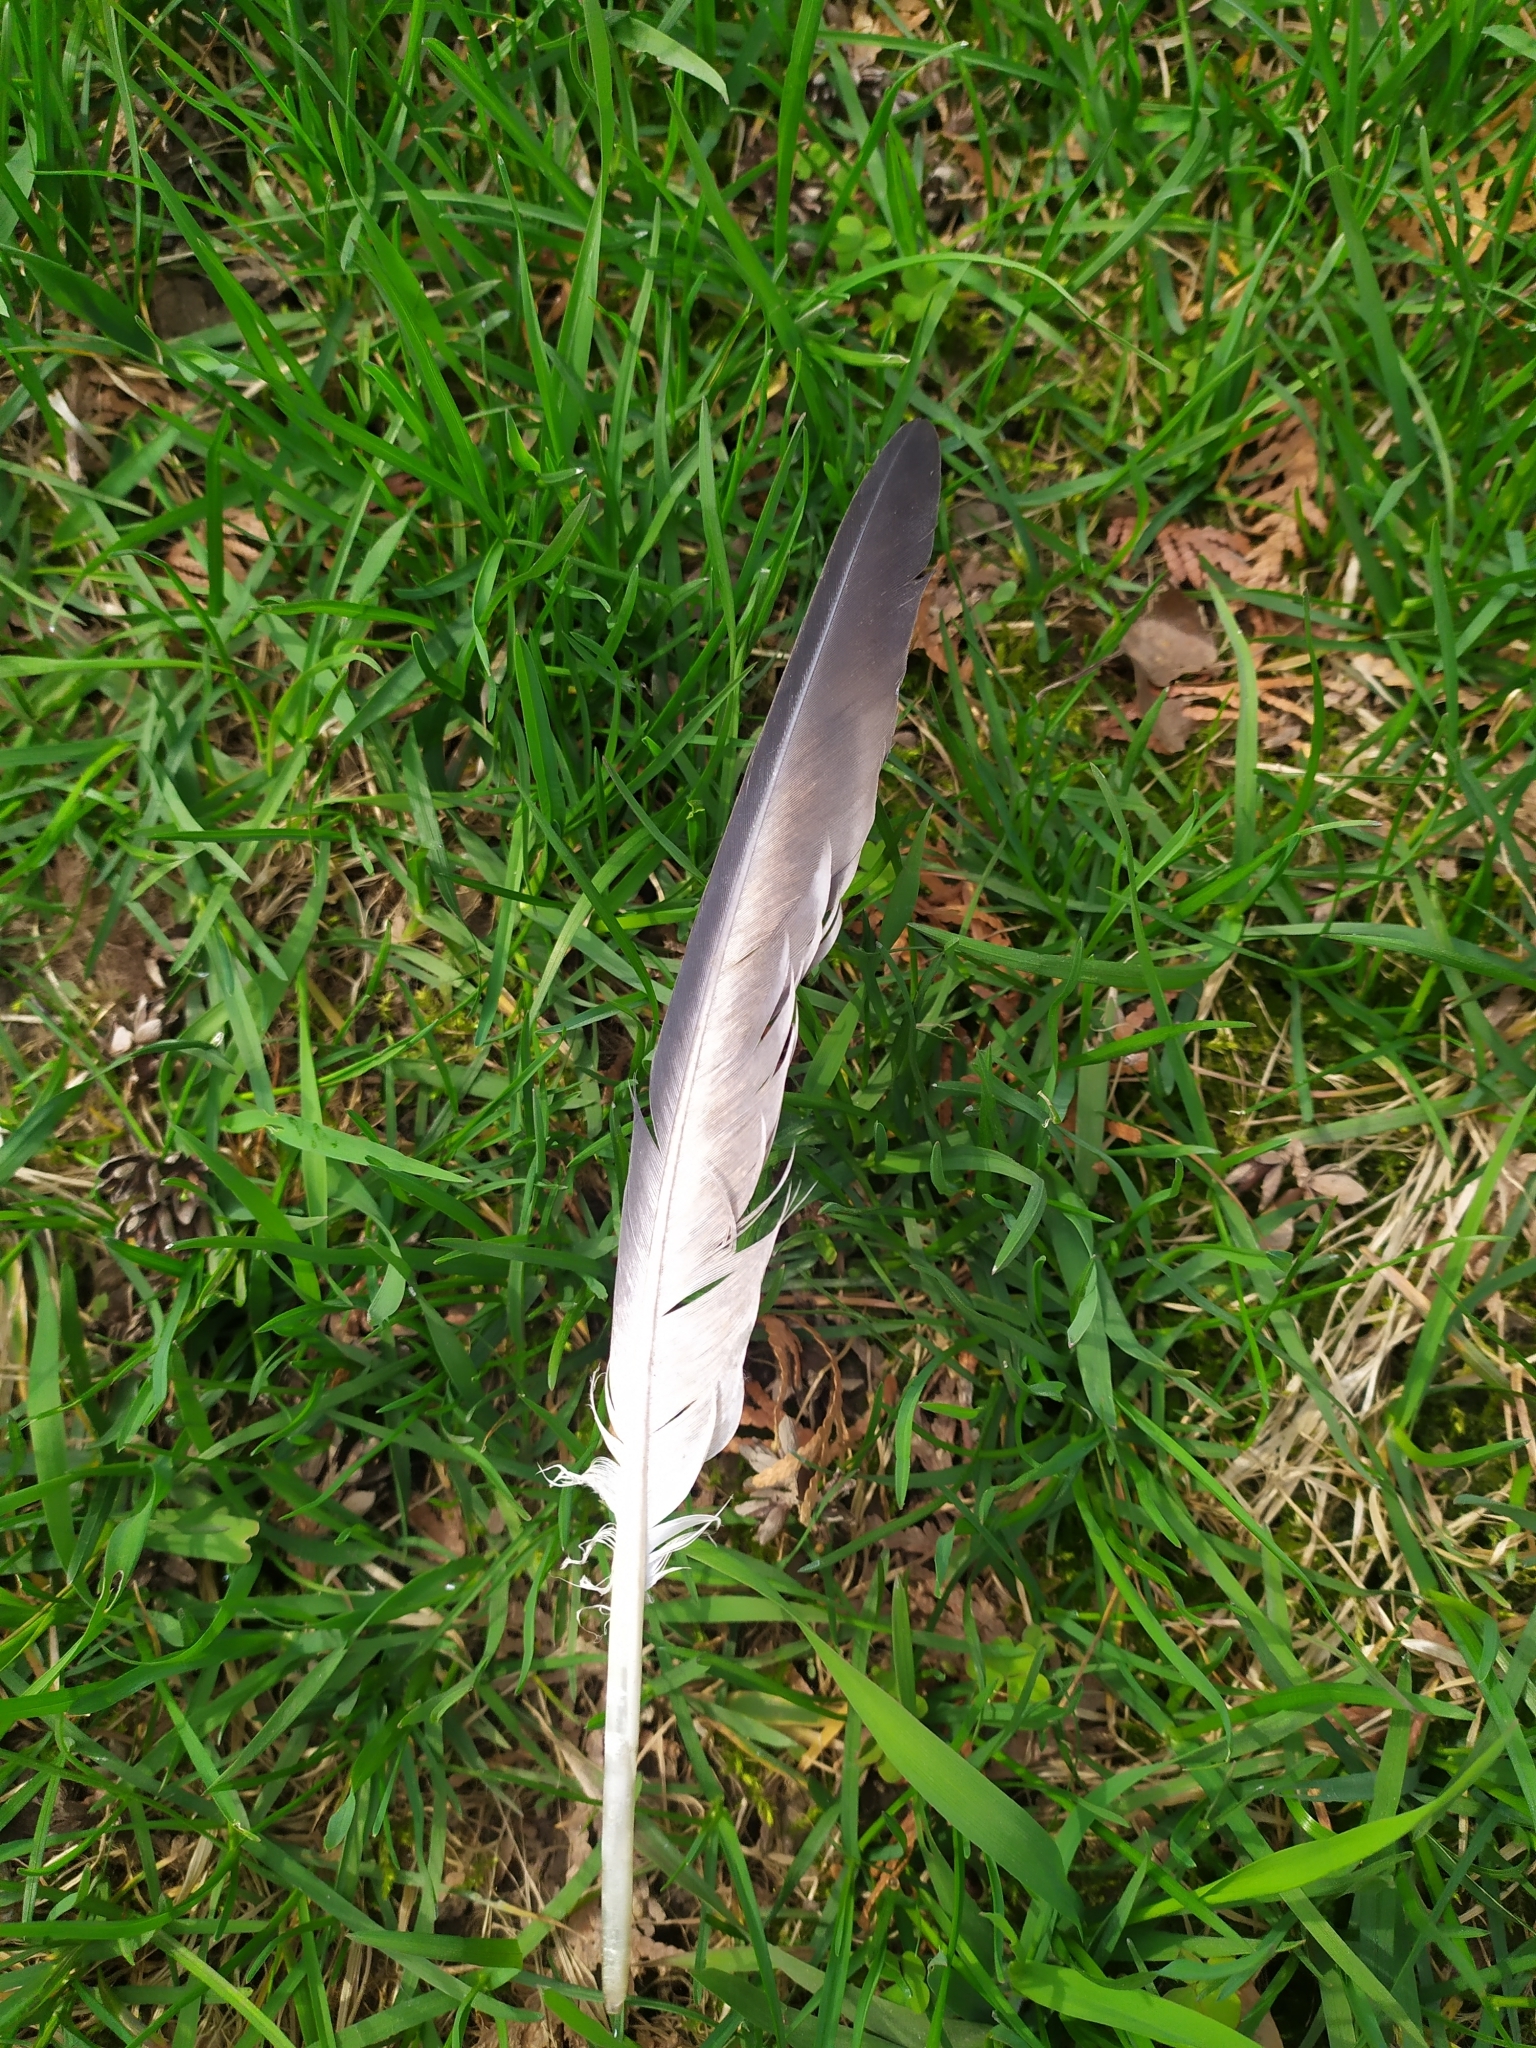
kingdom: Animalia
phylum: Chordata
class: Aves
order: Columbiformes
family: Columbidae
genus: Columba
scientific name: Columba livia
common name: Rock pigeon
